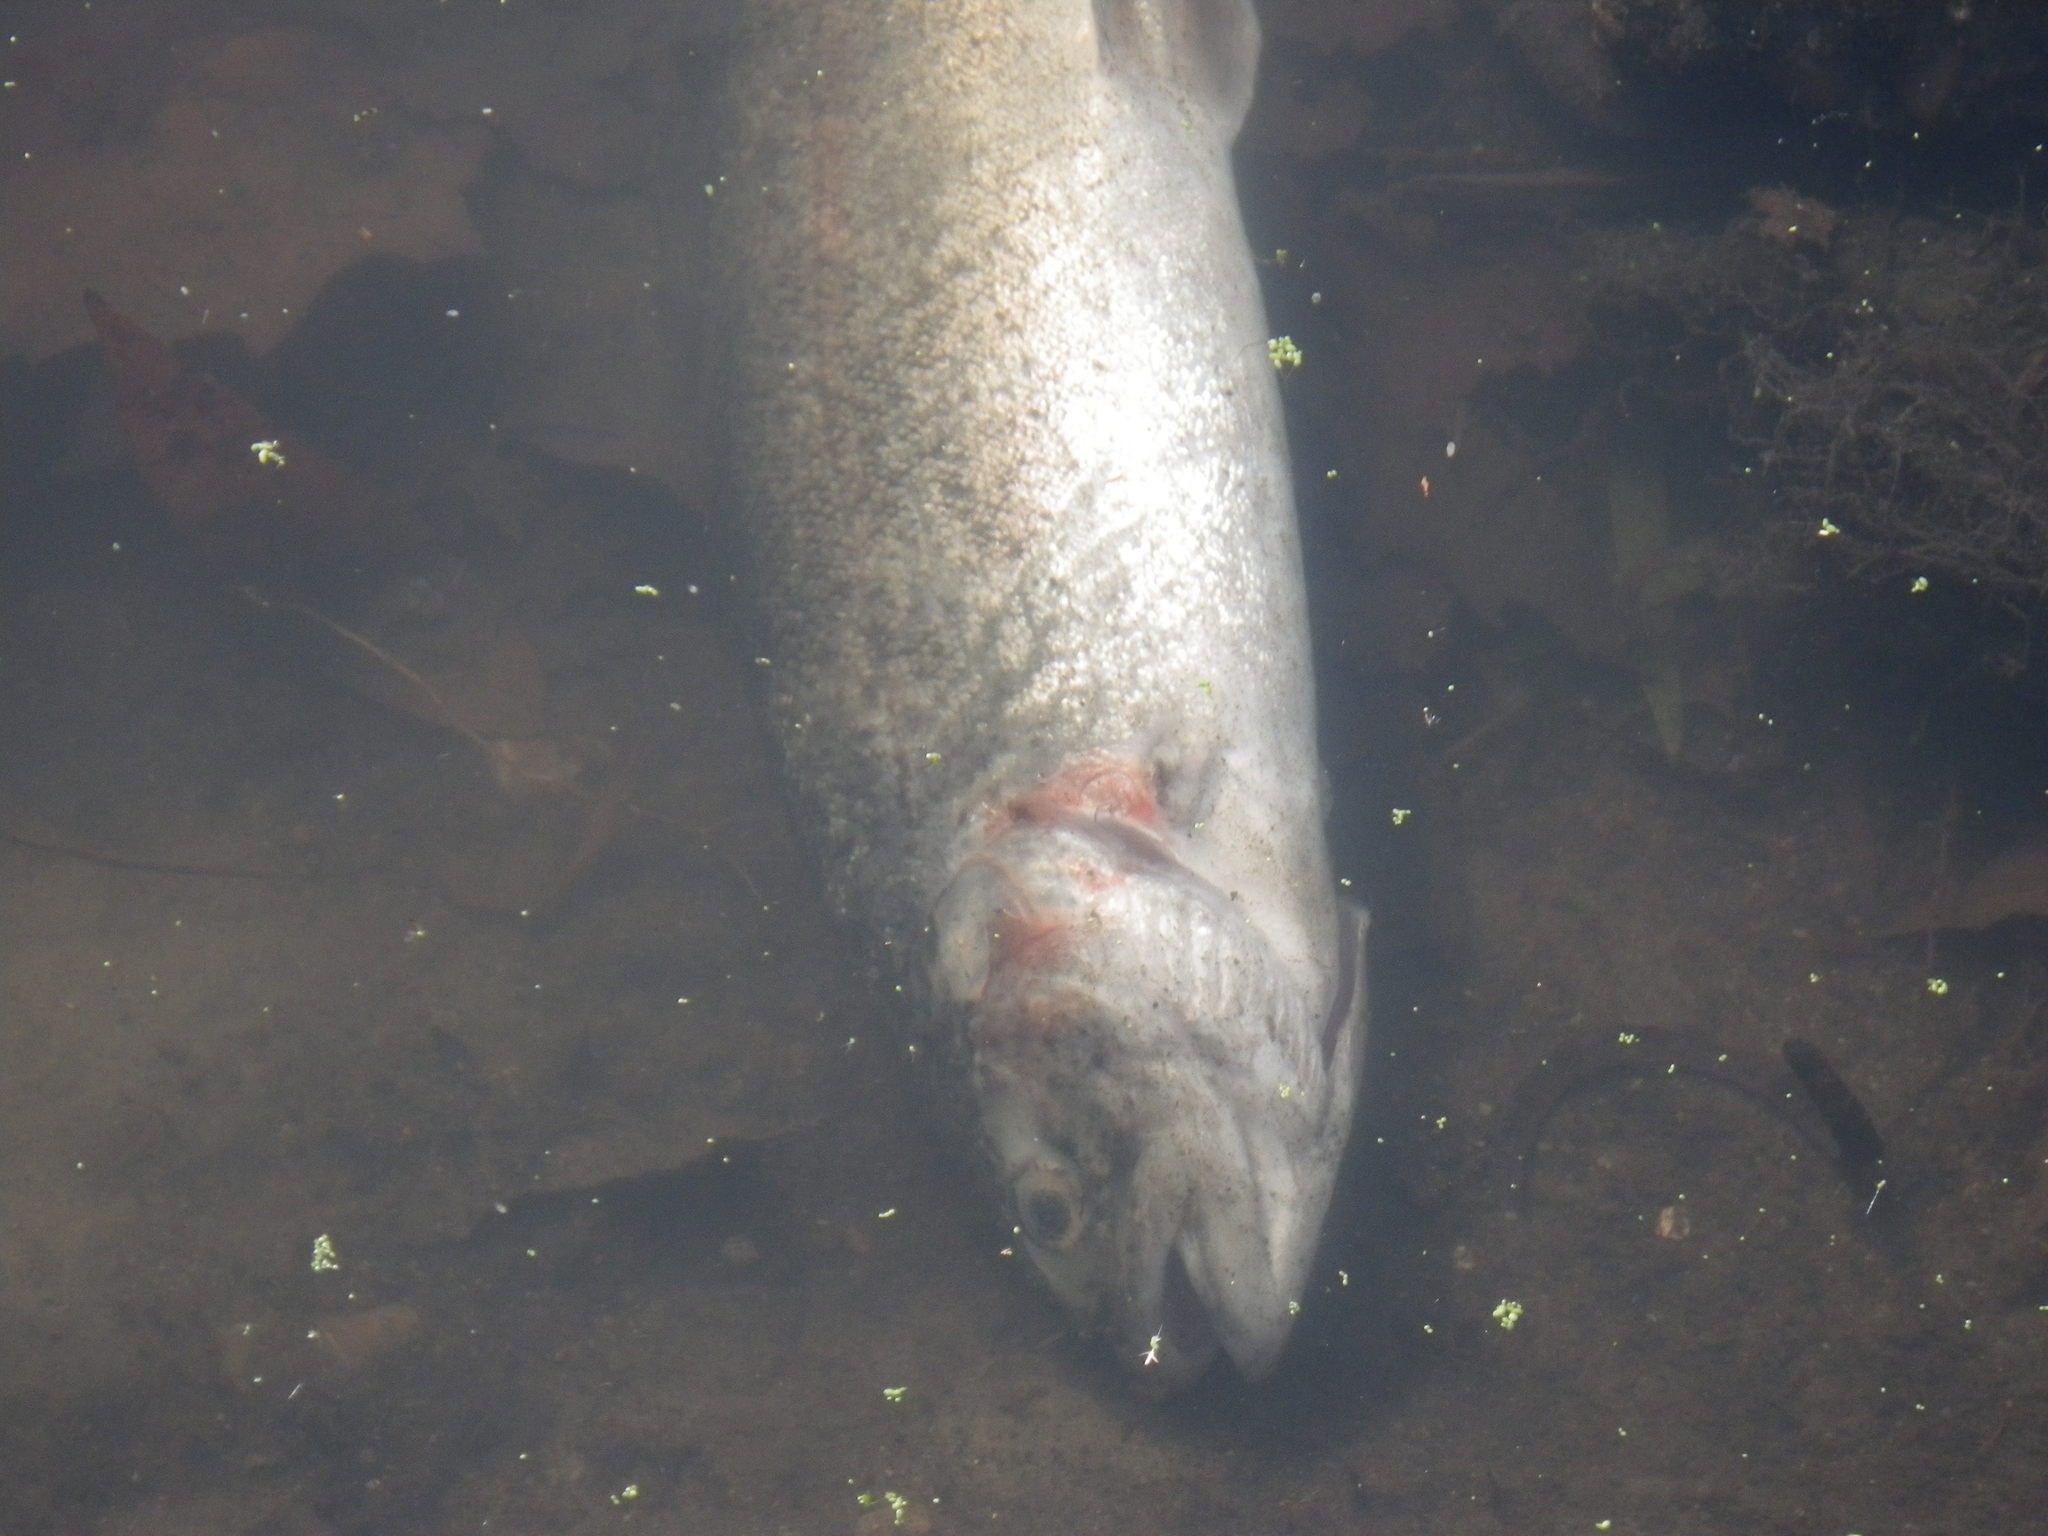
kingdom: Animalia
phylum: Chordata
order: Salmoniformes
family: Salmonidae
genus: Oncorhynchus
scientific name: Oncorhynchus mykiss
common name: Rainbow trout
